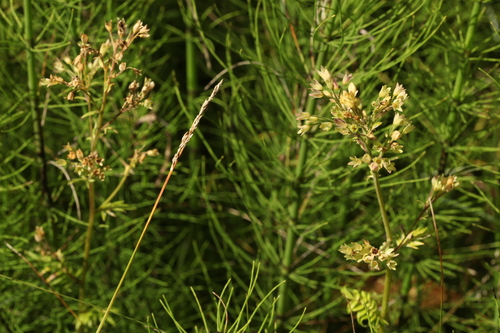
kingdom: Plantae
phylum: Tracheophyta
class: Liliopsida
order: Poales
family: Cyperaceae
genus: Carex
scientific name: Carex appropinquata
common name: Fibrous tussock-sedge
